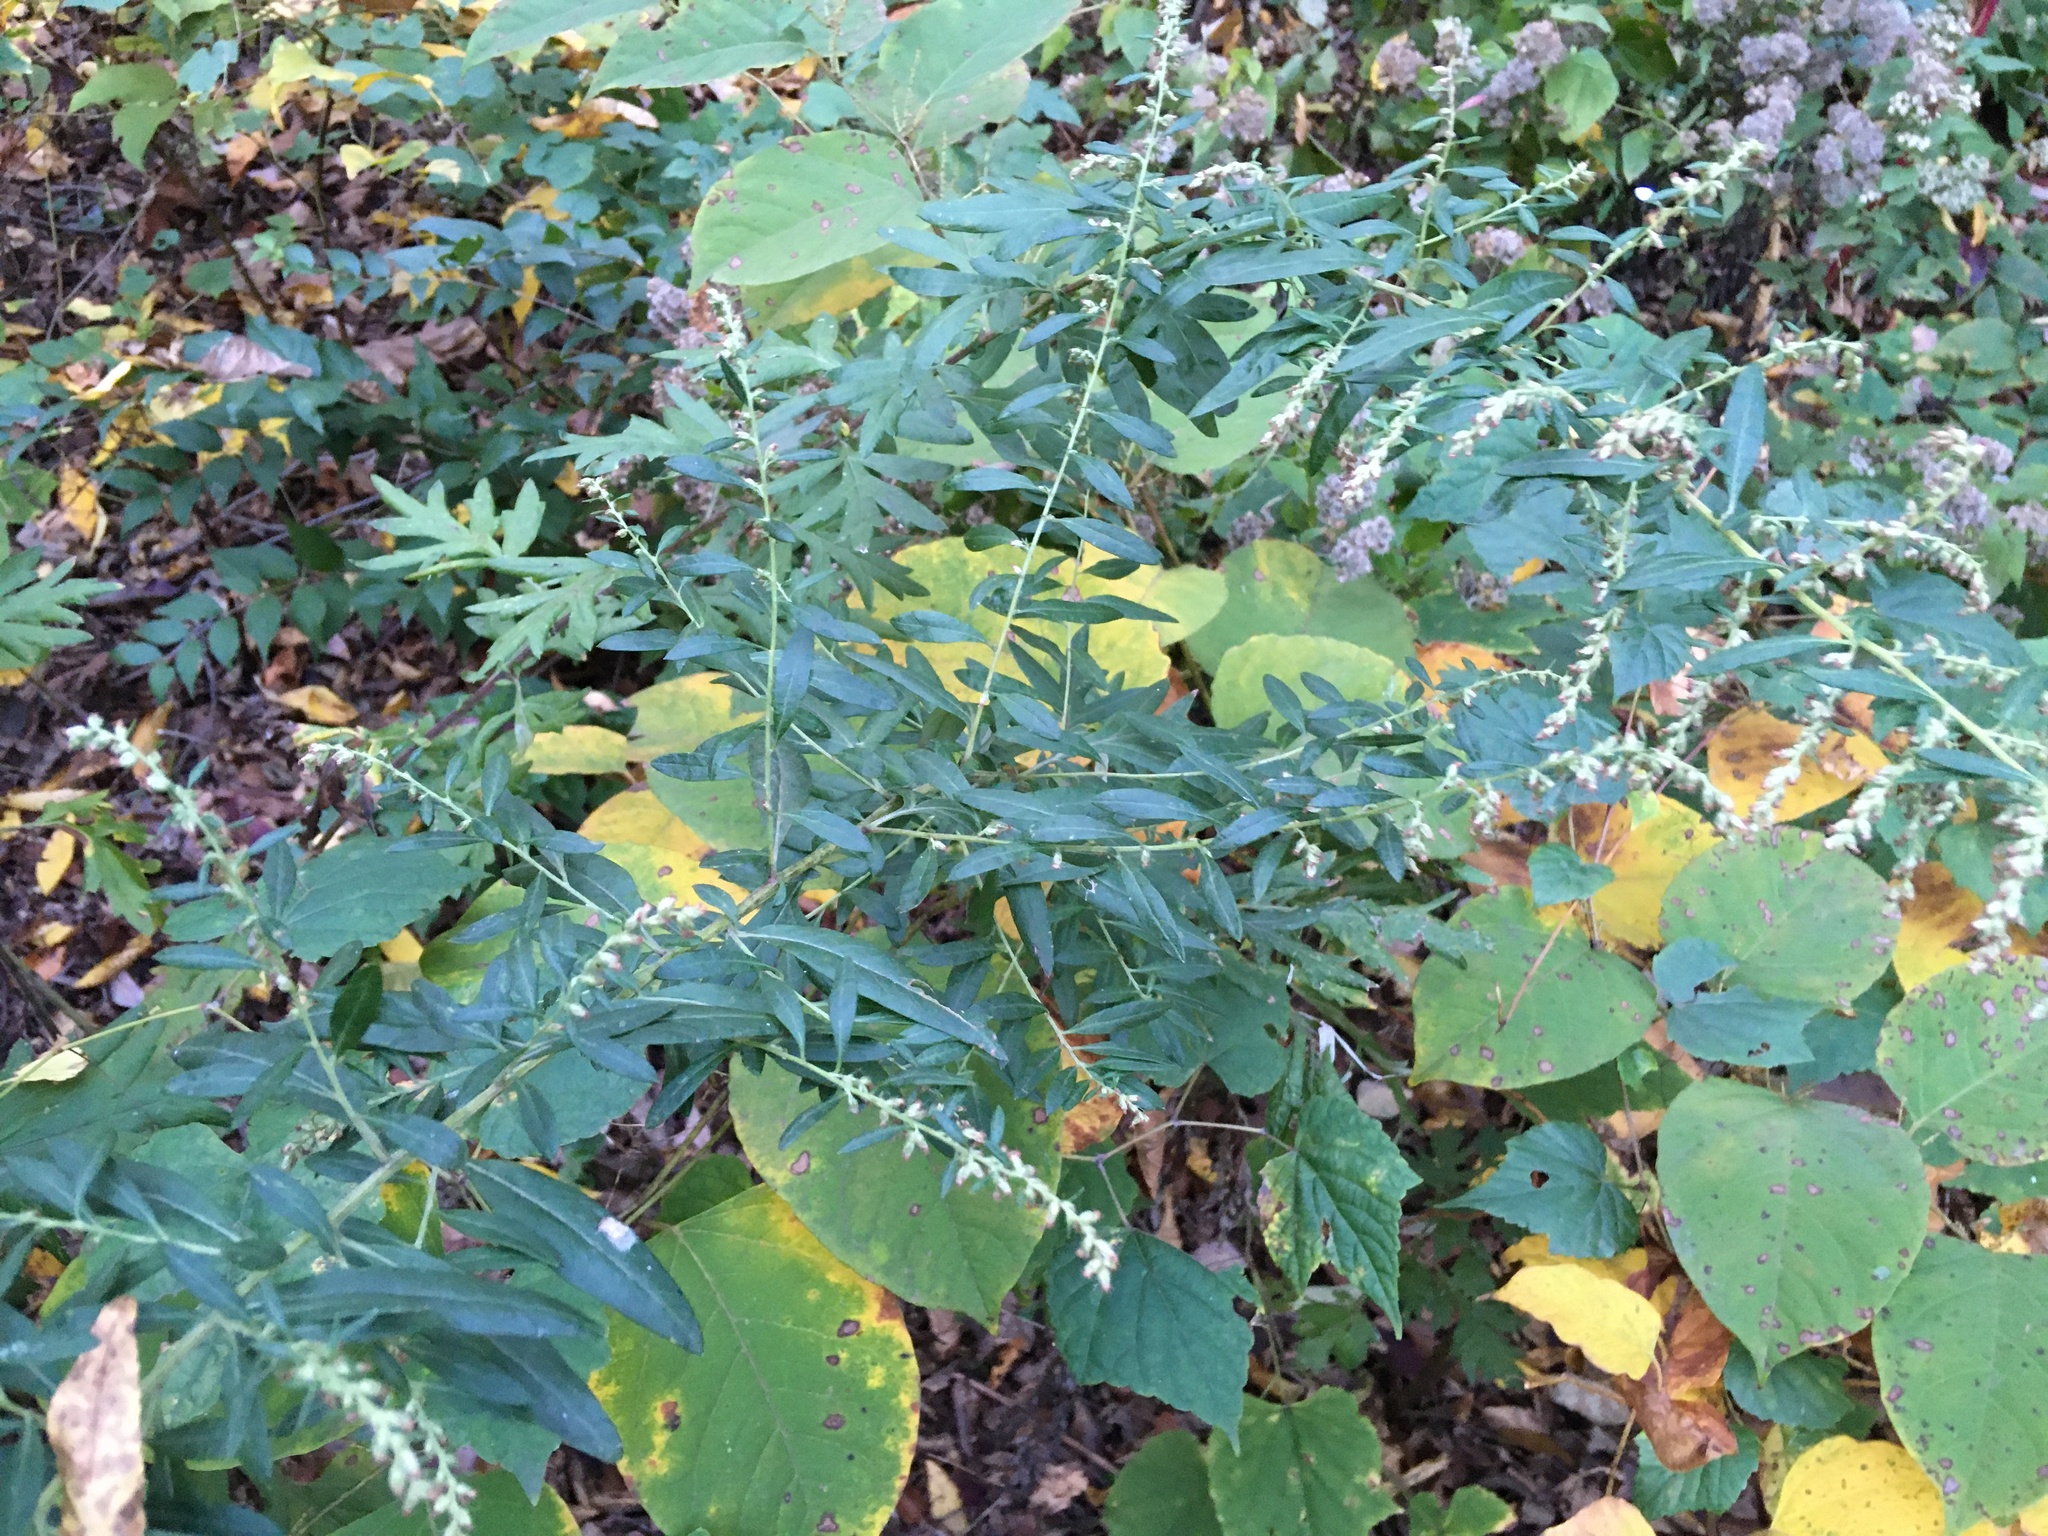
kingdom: Plantae
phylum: Tracheophyta
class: Magnoliopsida
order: Asterales
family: Asteraceae
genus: Artemisia
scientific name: Artemisia vulgaris
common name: Mugwort
